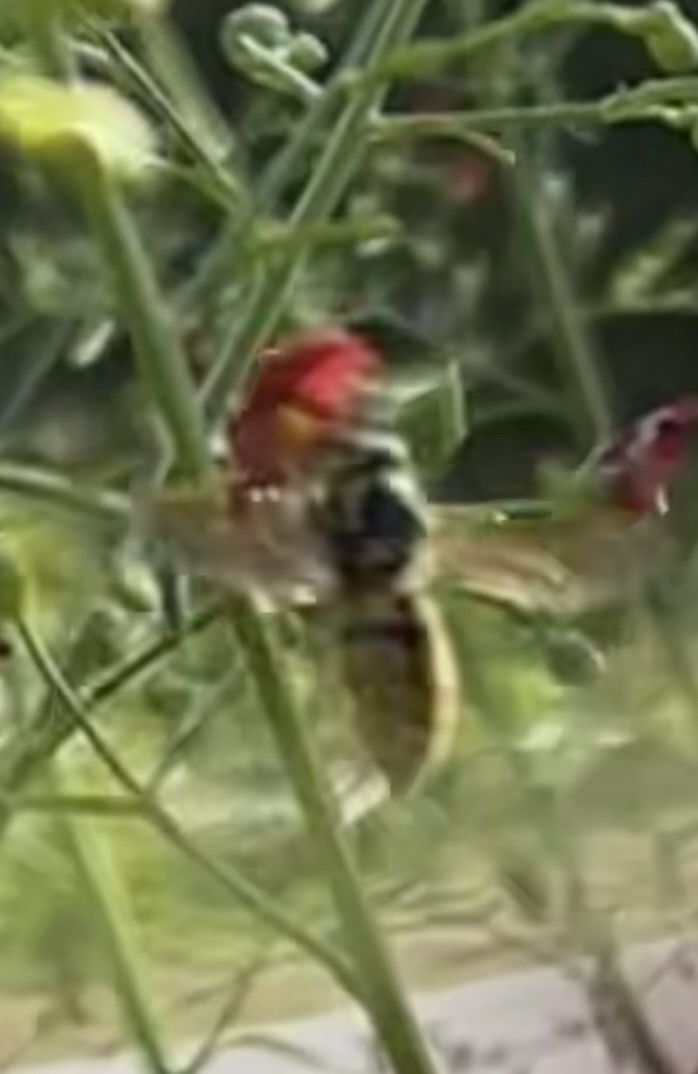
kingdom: Animalia
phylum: Arthropoda
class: Insecta
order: Hymenoptera
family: Vespidae
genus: Vespula
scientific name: Vespula pensylvanica
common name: Western yellowjacket
